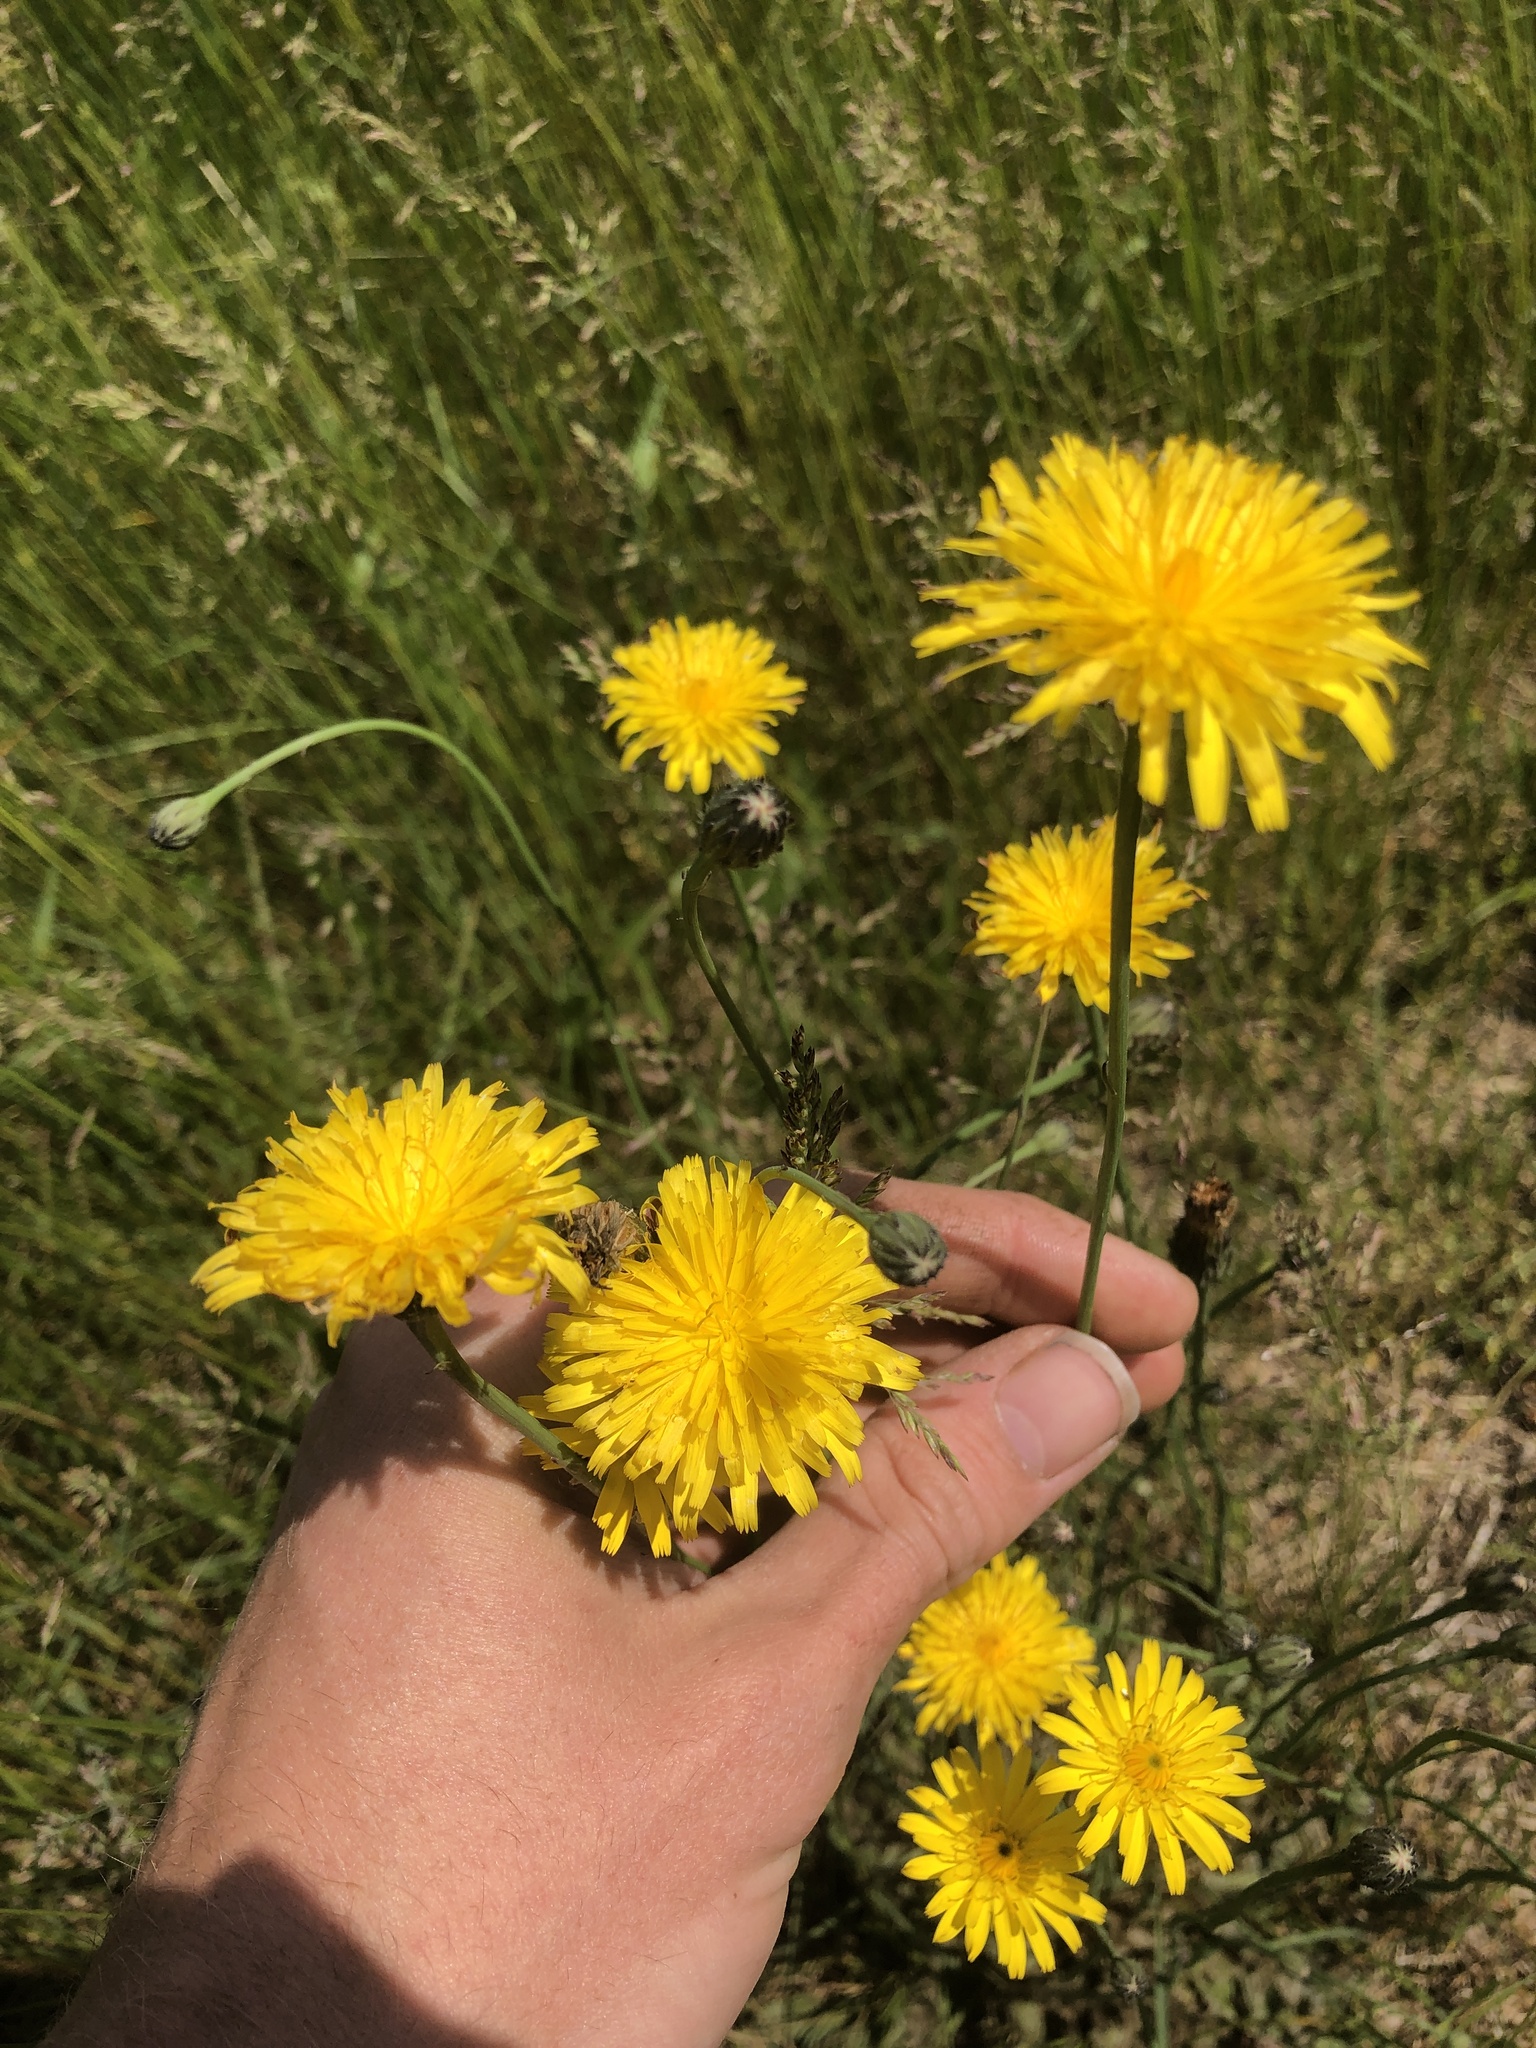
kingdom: Plantae
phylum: Tracheophyta
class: Magnoliopsida
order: Asterales
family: Asteraceae
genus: Hypochaeris
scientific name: Hypochaeris radicata
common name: Flatweed
